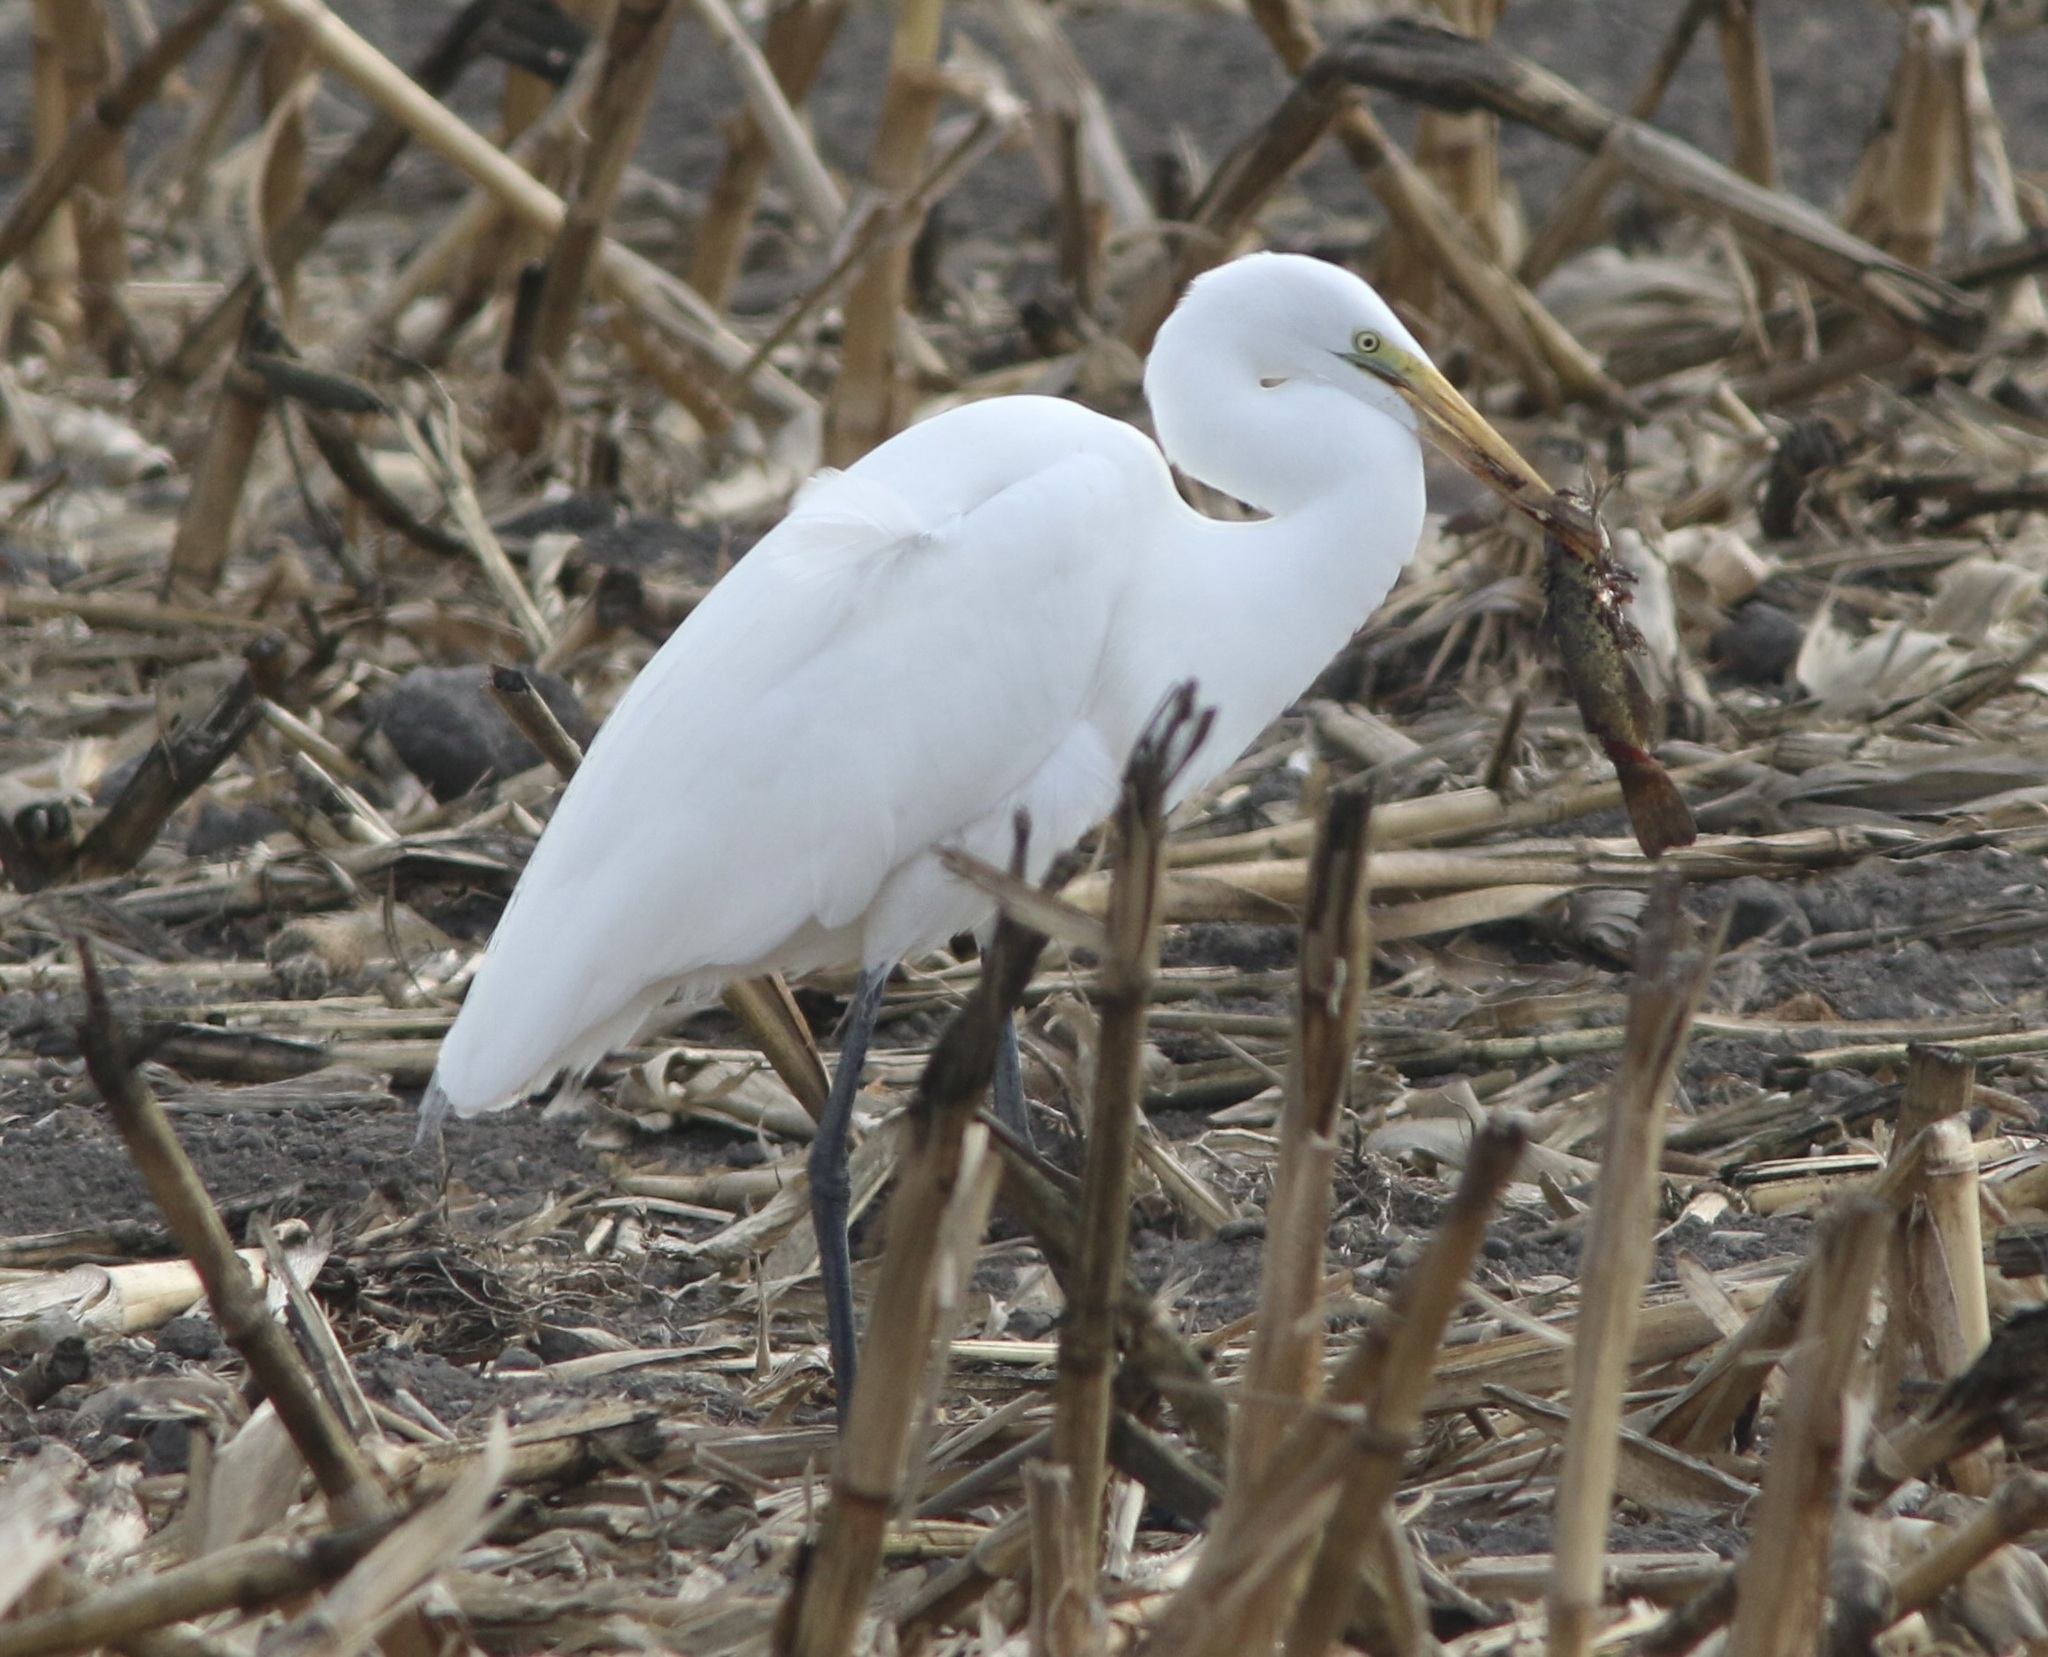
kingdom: Animalia
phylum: Chordata
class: Aves
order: Pelecaniformes
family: Ardeidae
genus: Ardea
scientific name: Ardea alba
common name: Great egret
